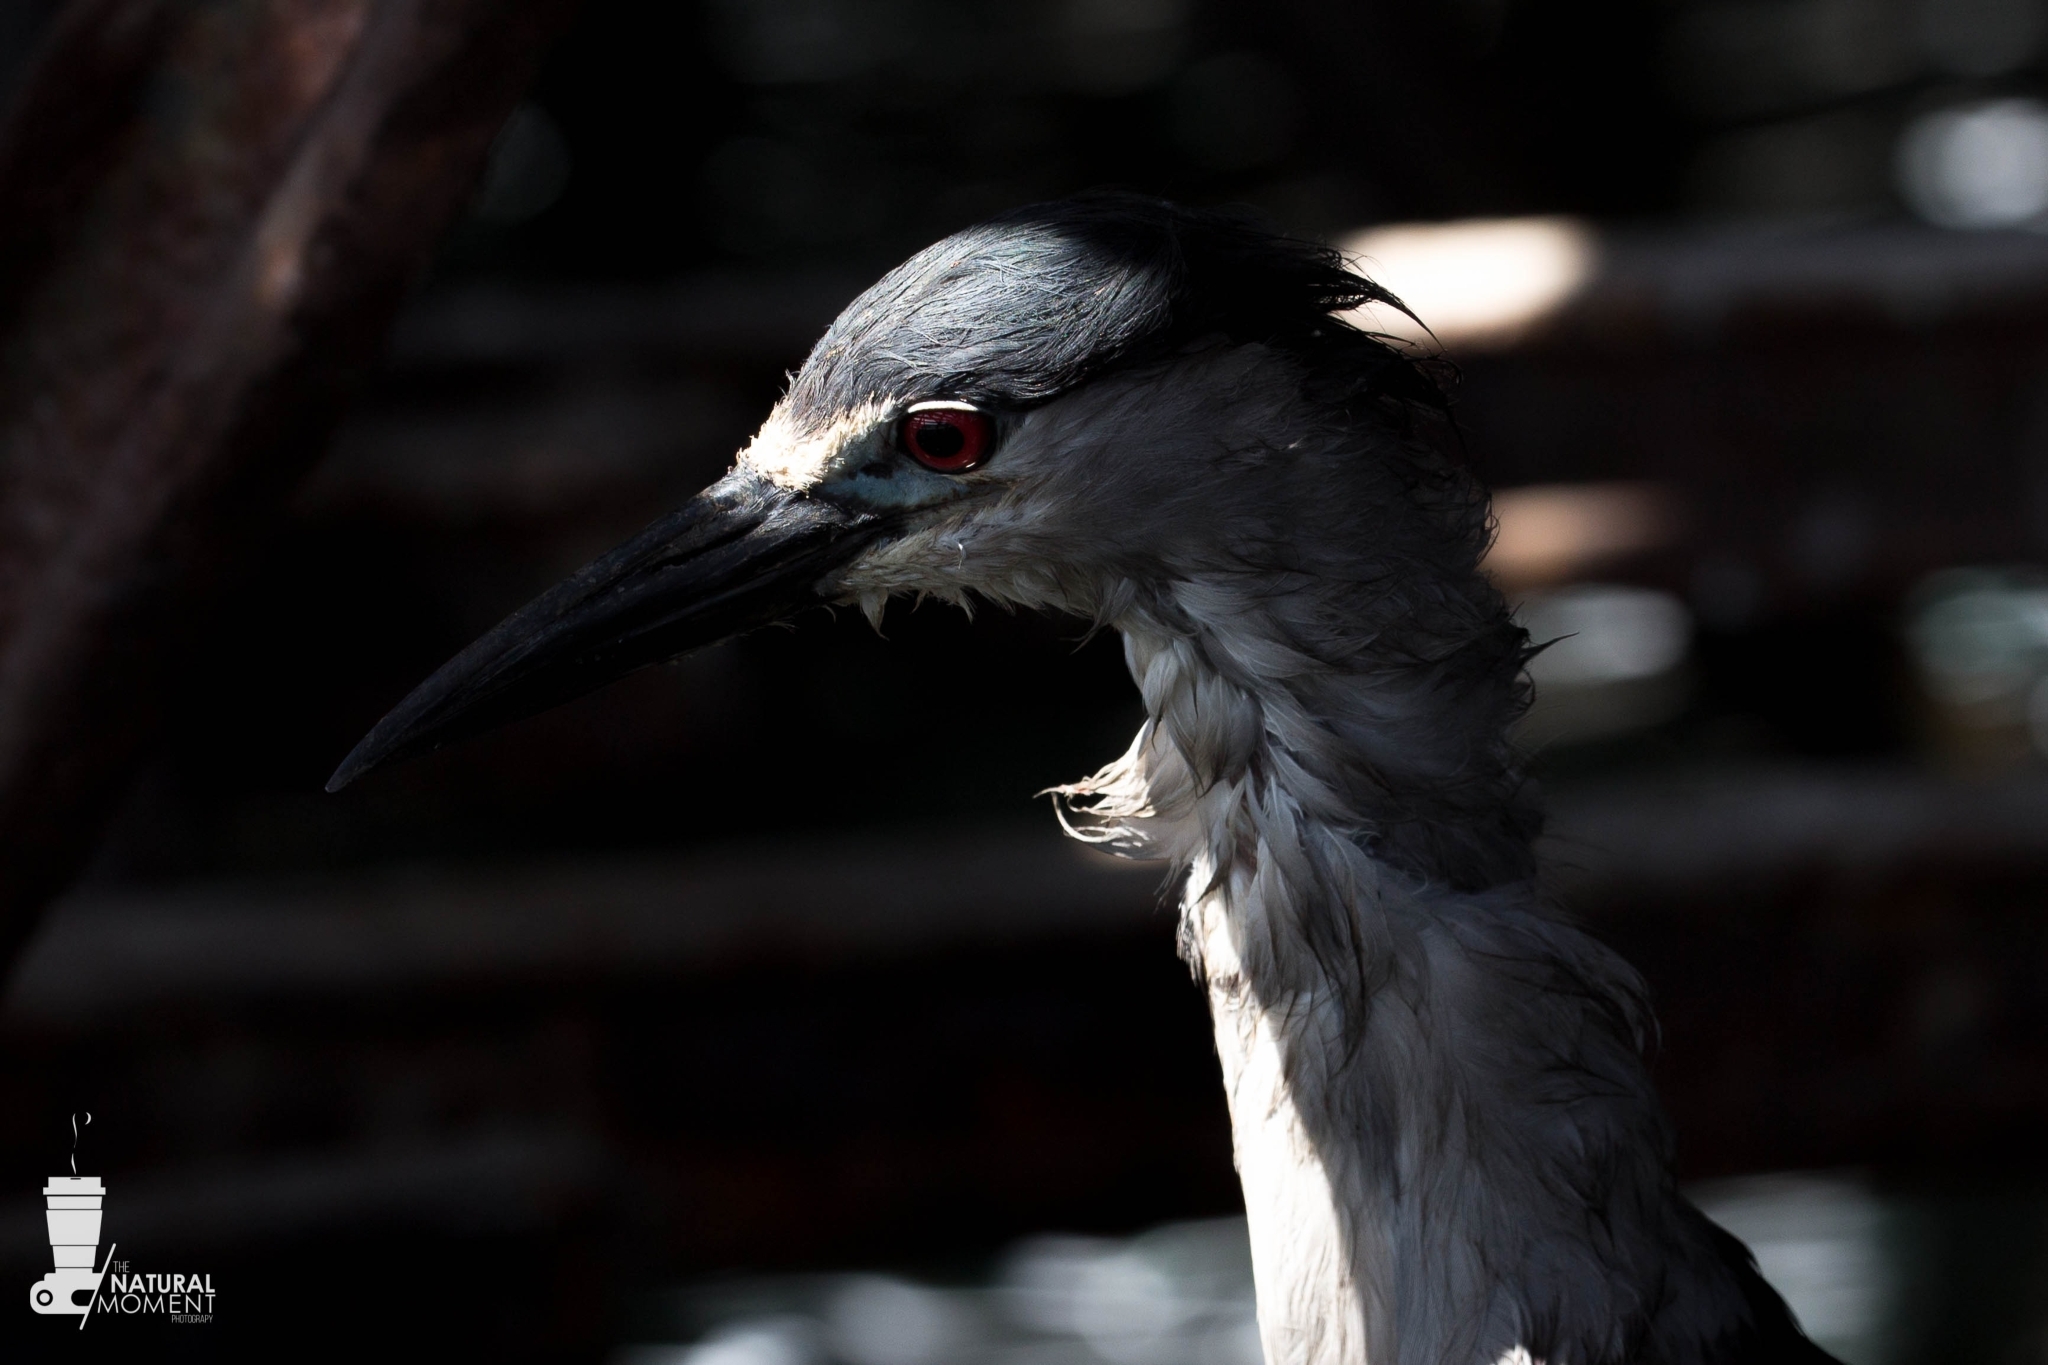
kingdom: Animalia
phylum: Chordata
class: Aves
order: Pelecaniformes
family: Ardeidae
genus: Nycticorax
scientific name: Nycticorax nycticorax
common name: Black-crowned night heron
